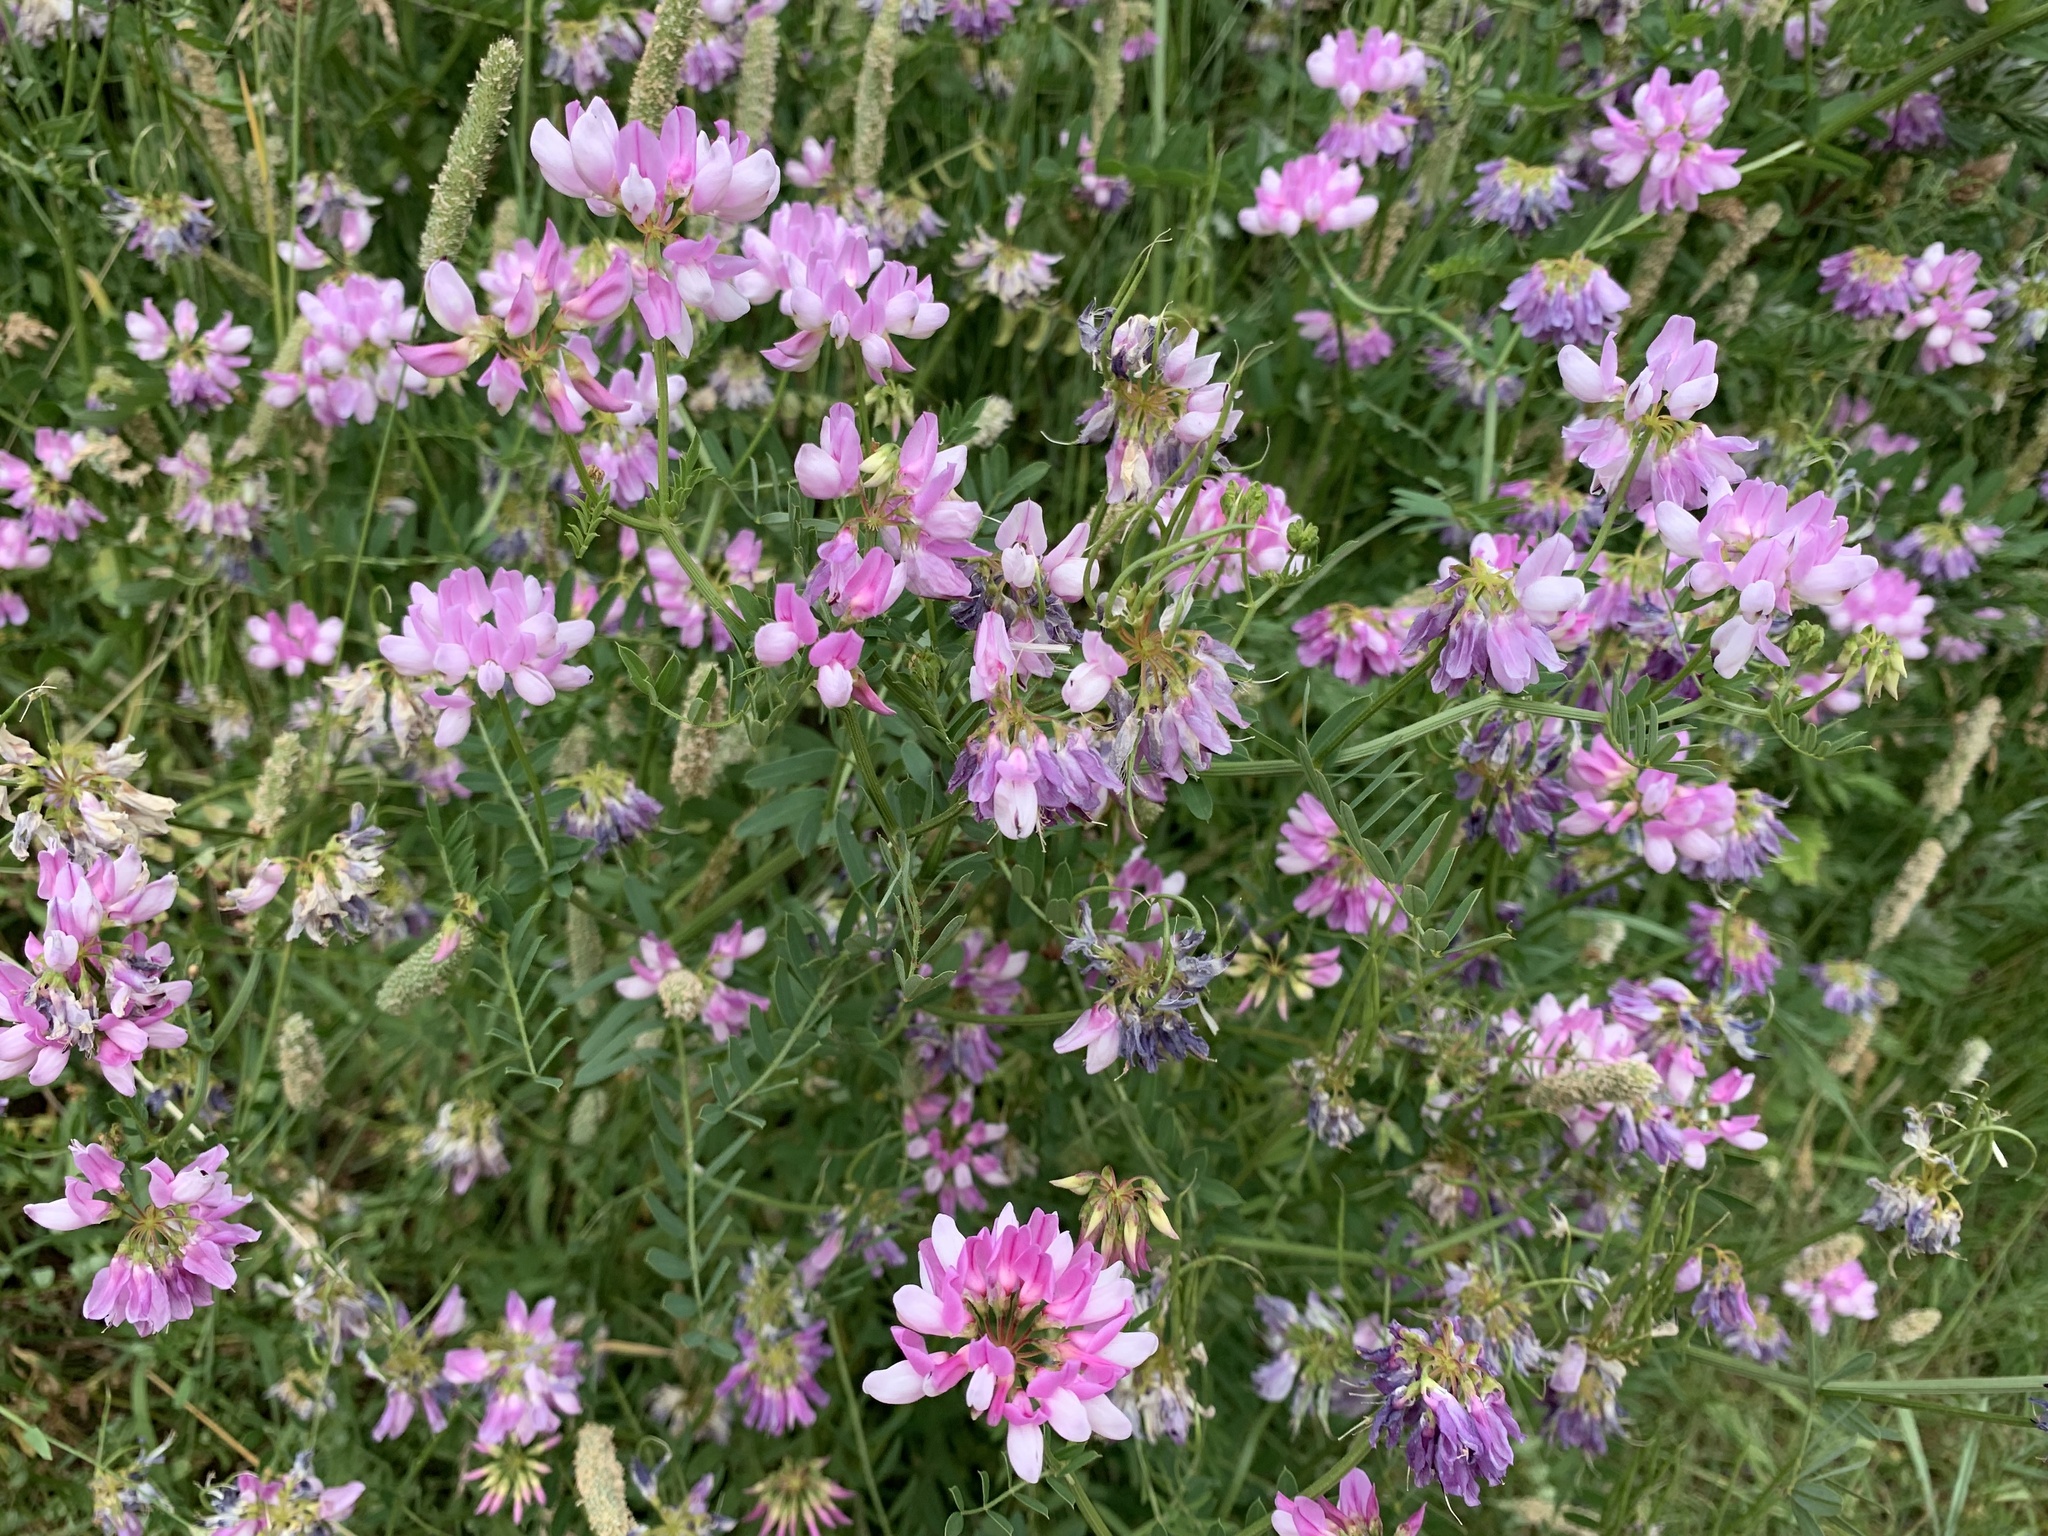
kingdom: Plantae
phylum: Tracheophyta
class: Magnoliopsida
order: Fabales
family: Fabaceae
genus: Coronilla
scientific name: Coronilla varia
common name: Crownvetch
